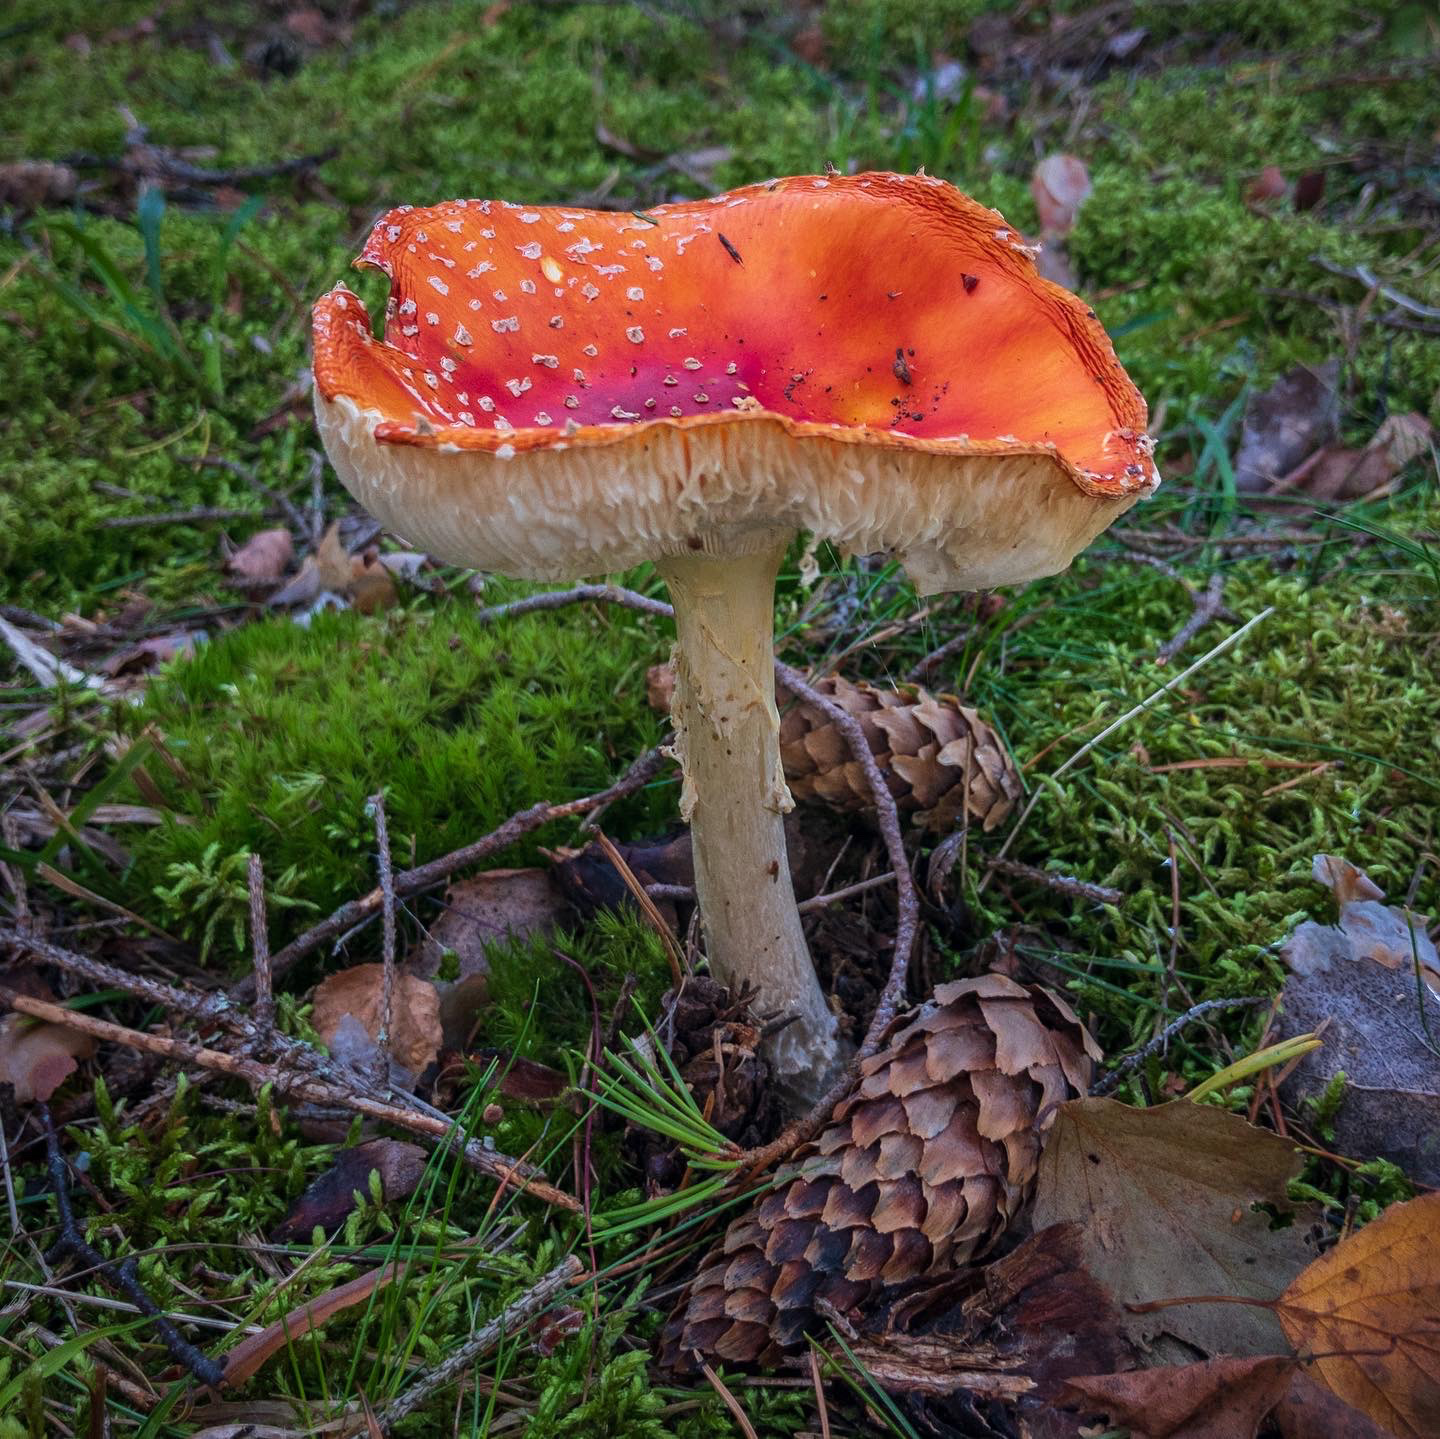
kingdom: Fungi
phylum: Basidiomycota
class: Agaricomycetes
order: Agaricales
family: Amanitaceae
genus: Amanita
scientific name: Amanita muscaria
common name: Fly agaric
